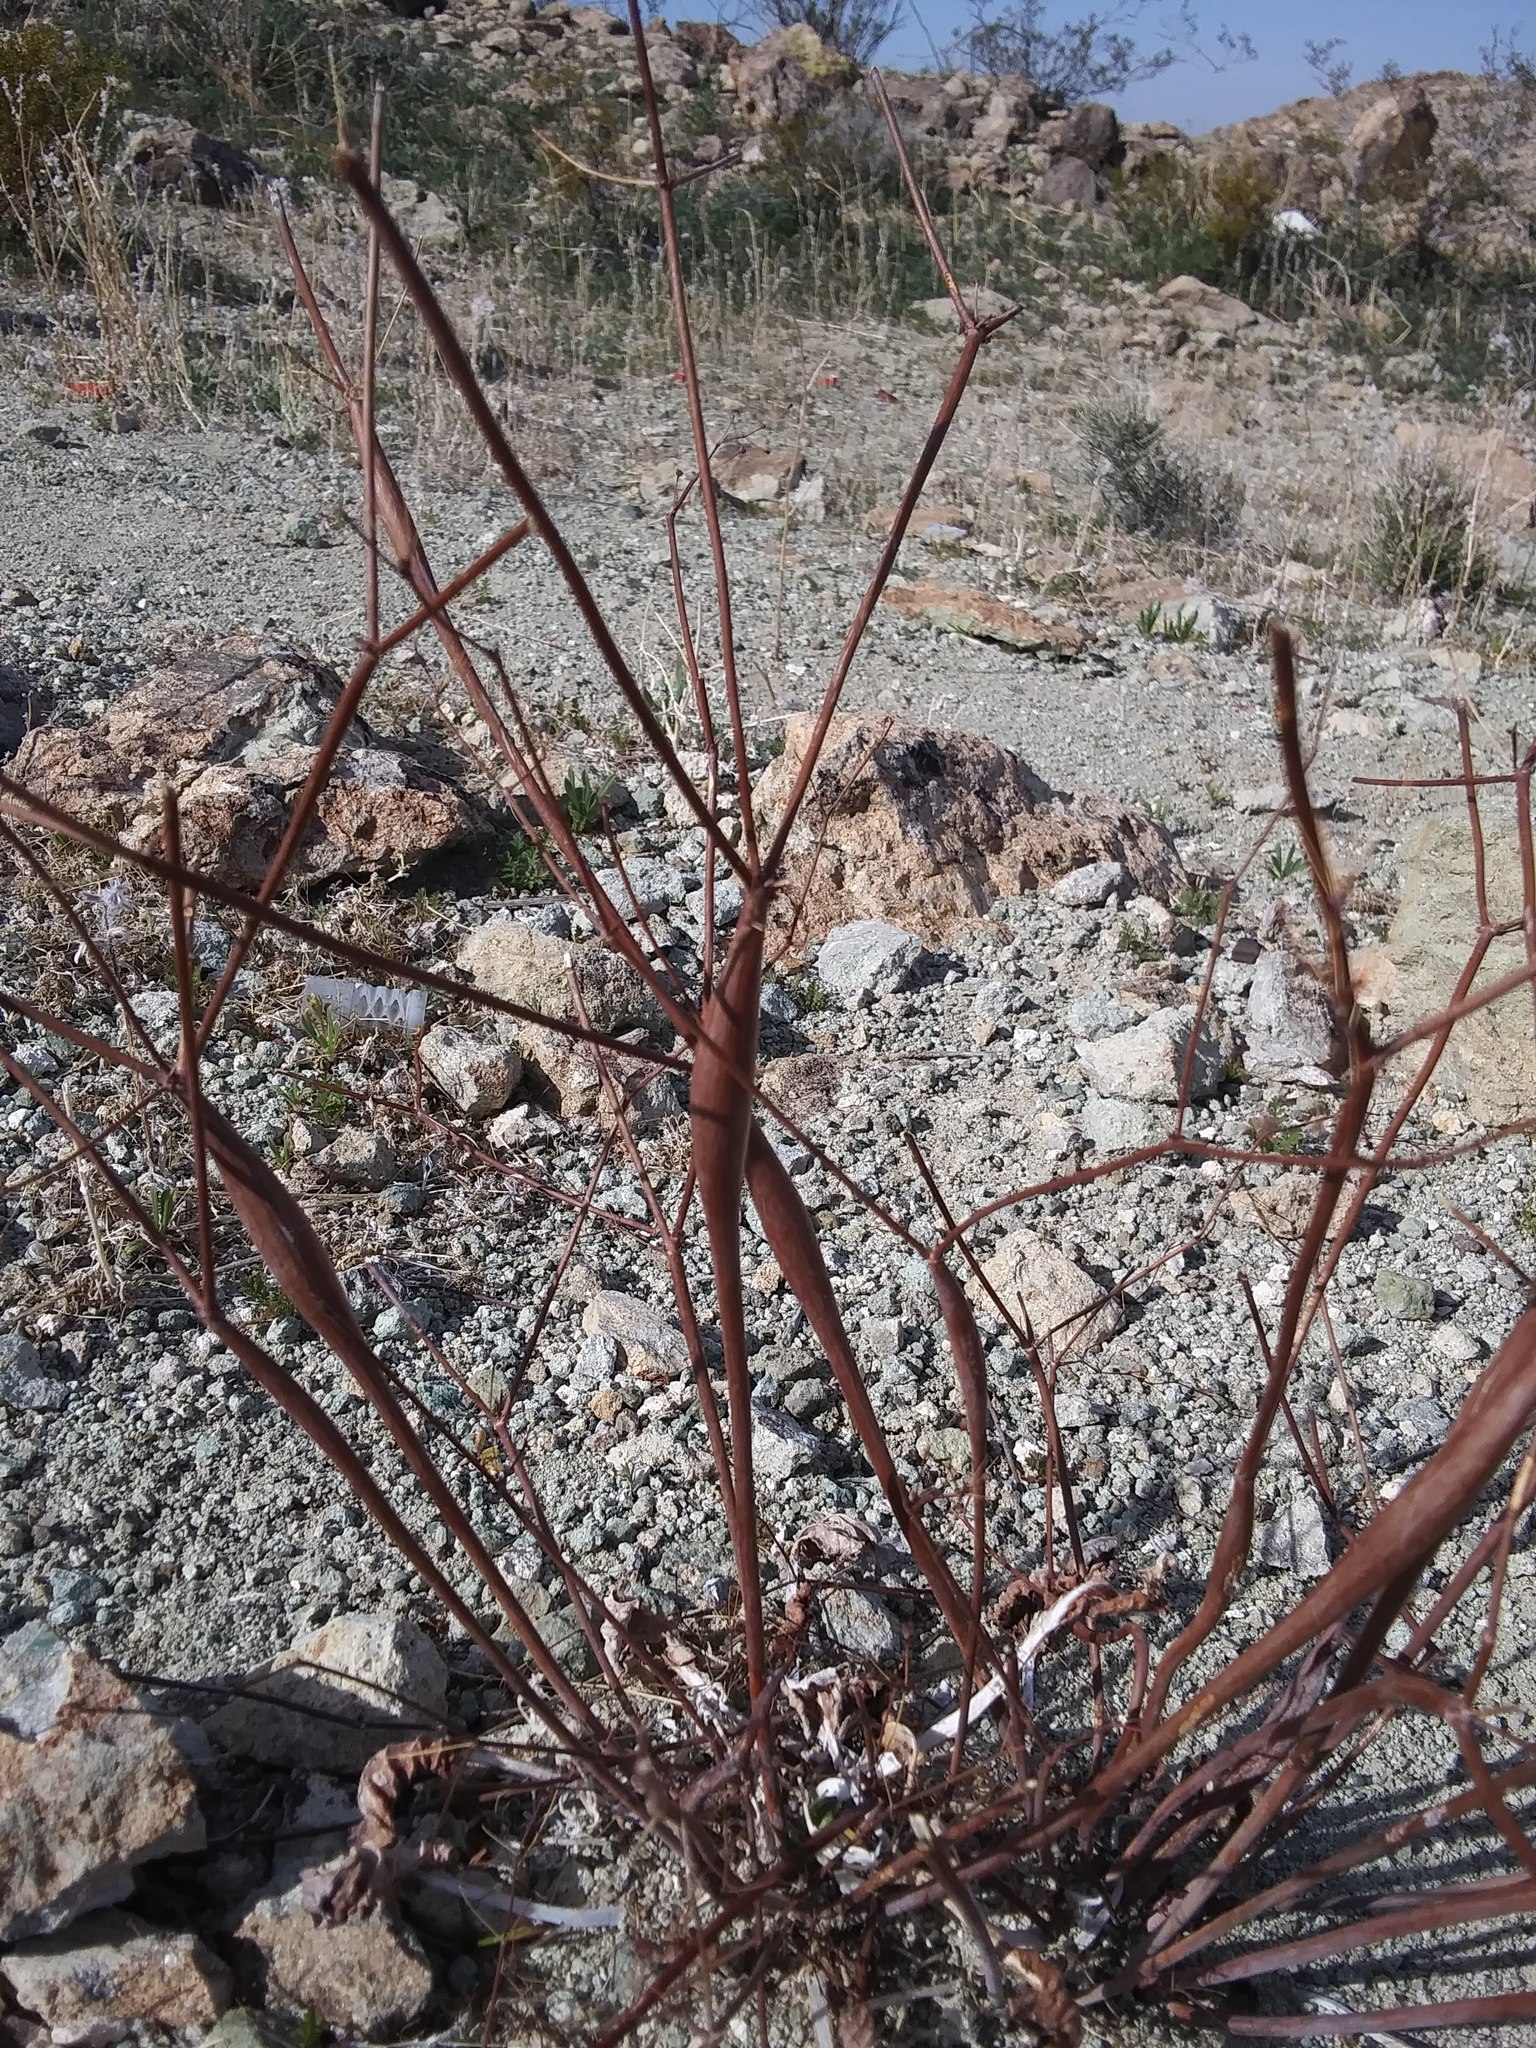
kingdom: Plantae
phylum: Tracheophyta
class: Magnoliopsida
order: Caryophyllales
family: Polygonaceae
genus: Eriogonum
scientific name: Eriogonum inflatum
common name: Desert trumpet
